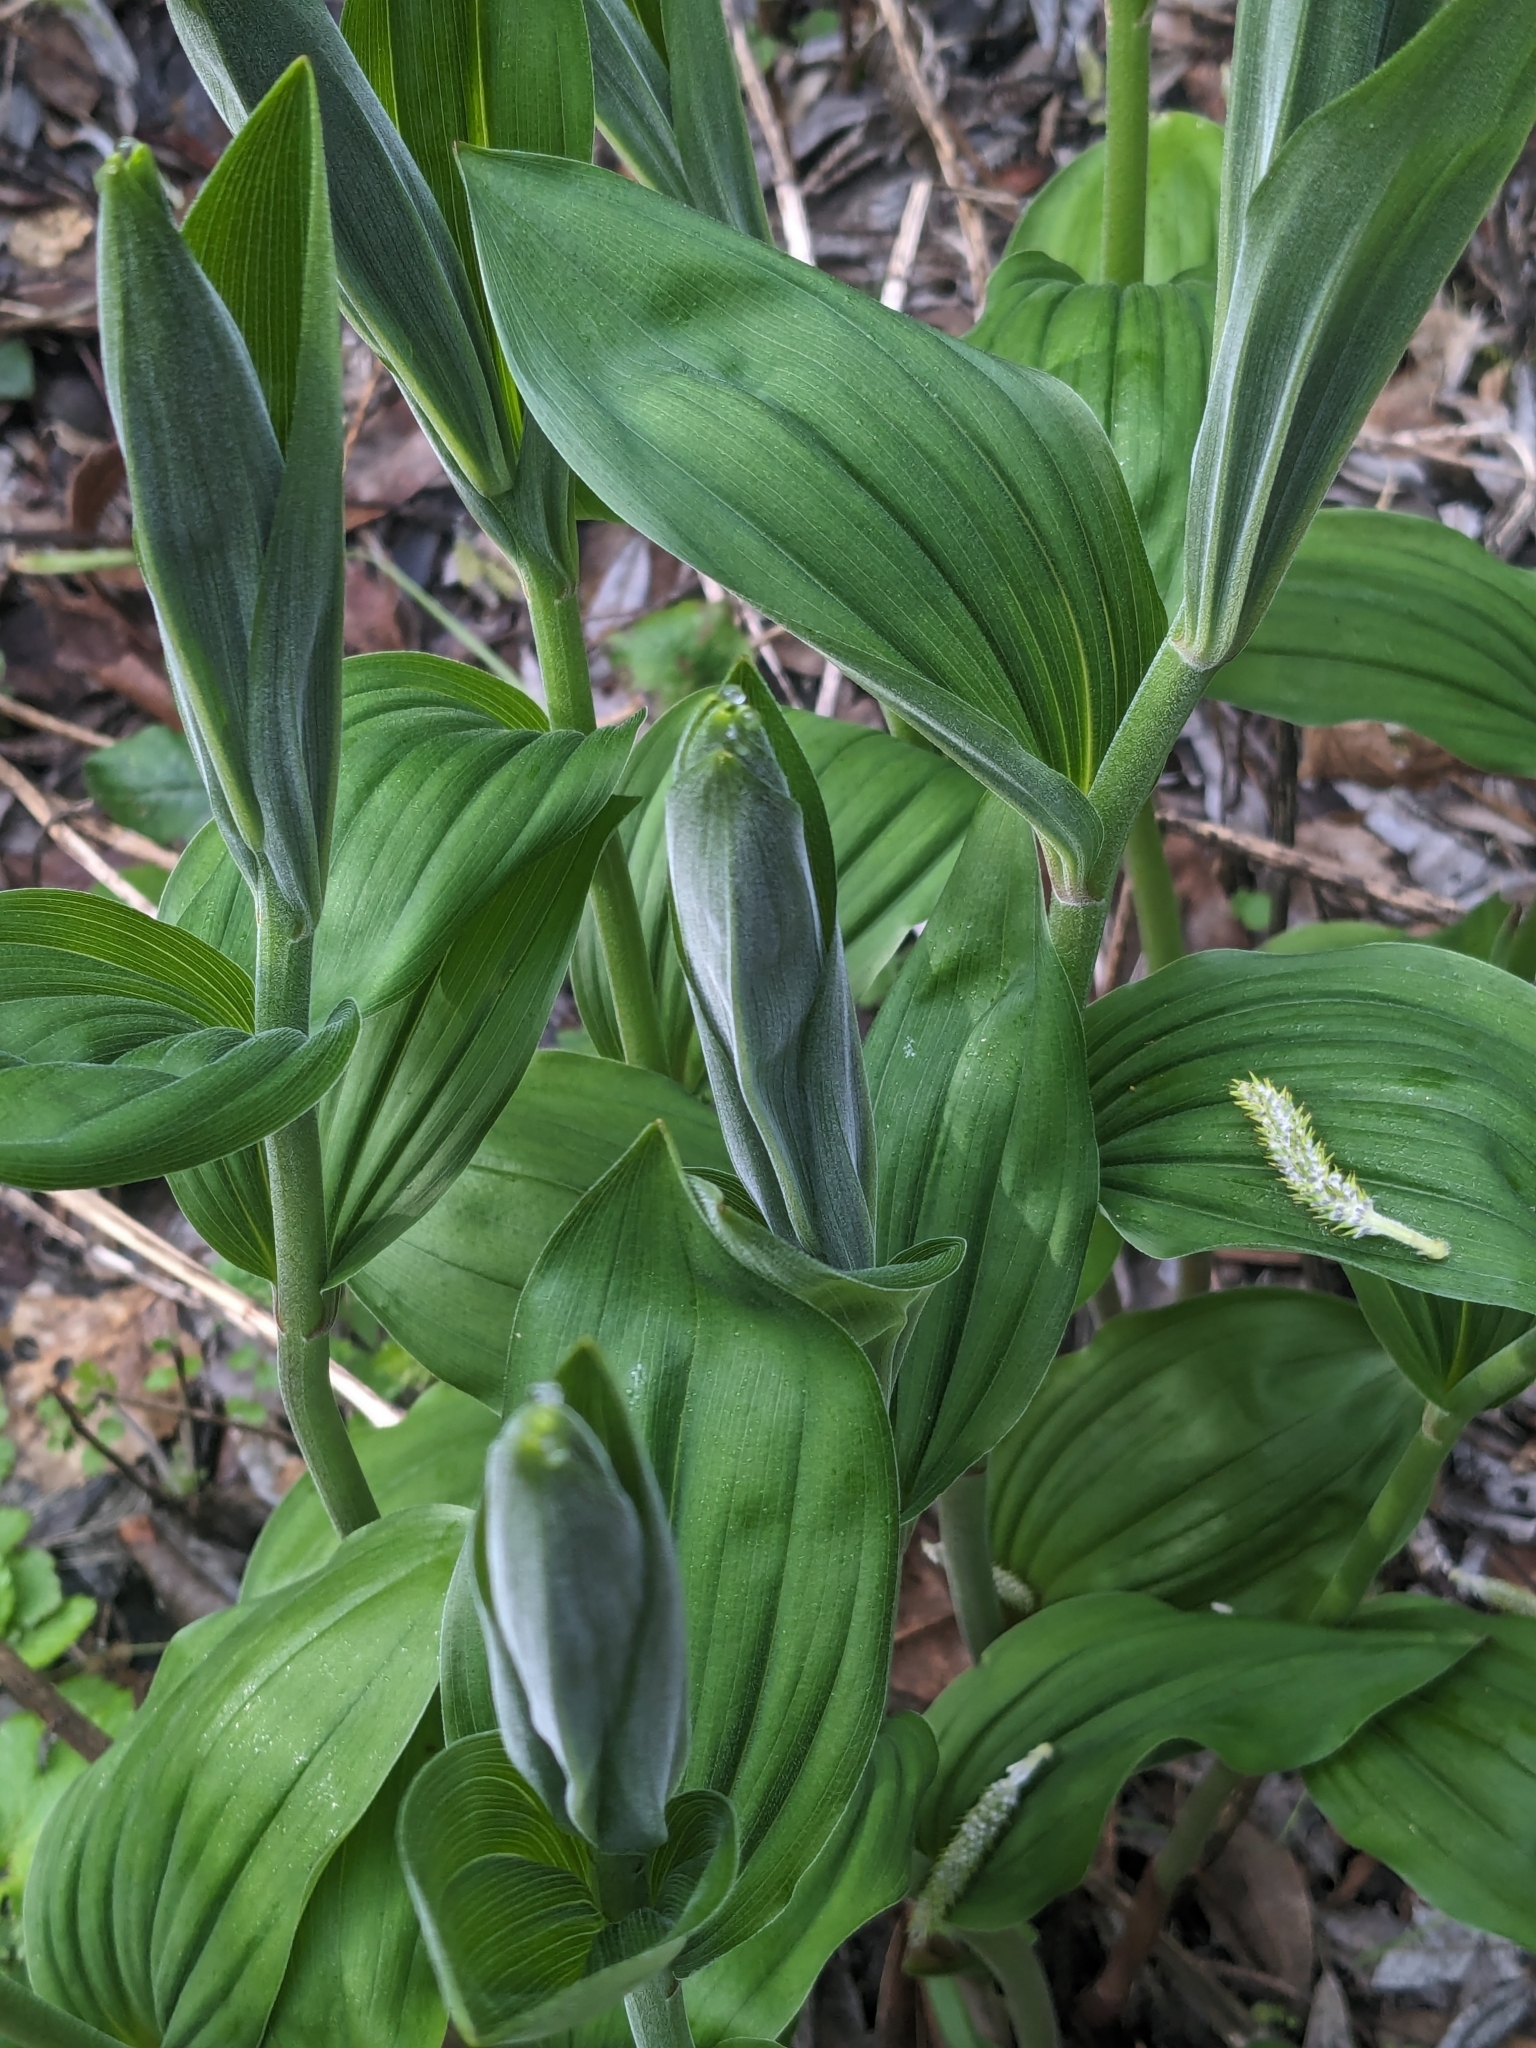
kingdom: Plantae
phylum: Tracheophyta
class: Liliopsida
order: Asparagales
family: Asparagaceae
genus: Maianthemum
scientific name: Maianthemum racemosum
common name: False spikenard
